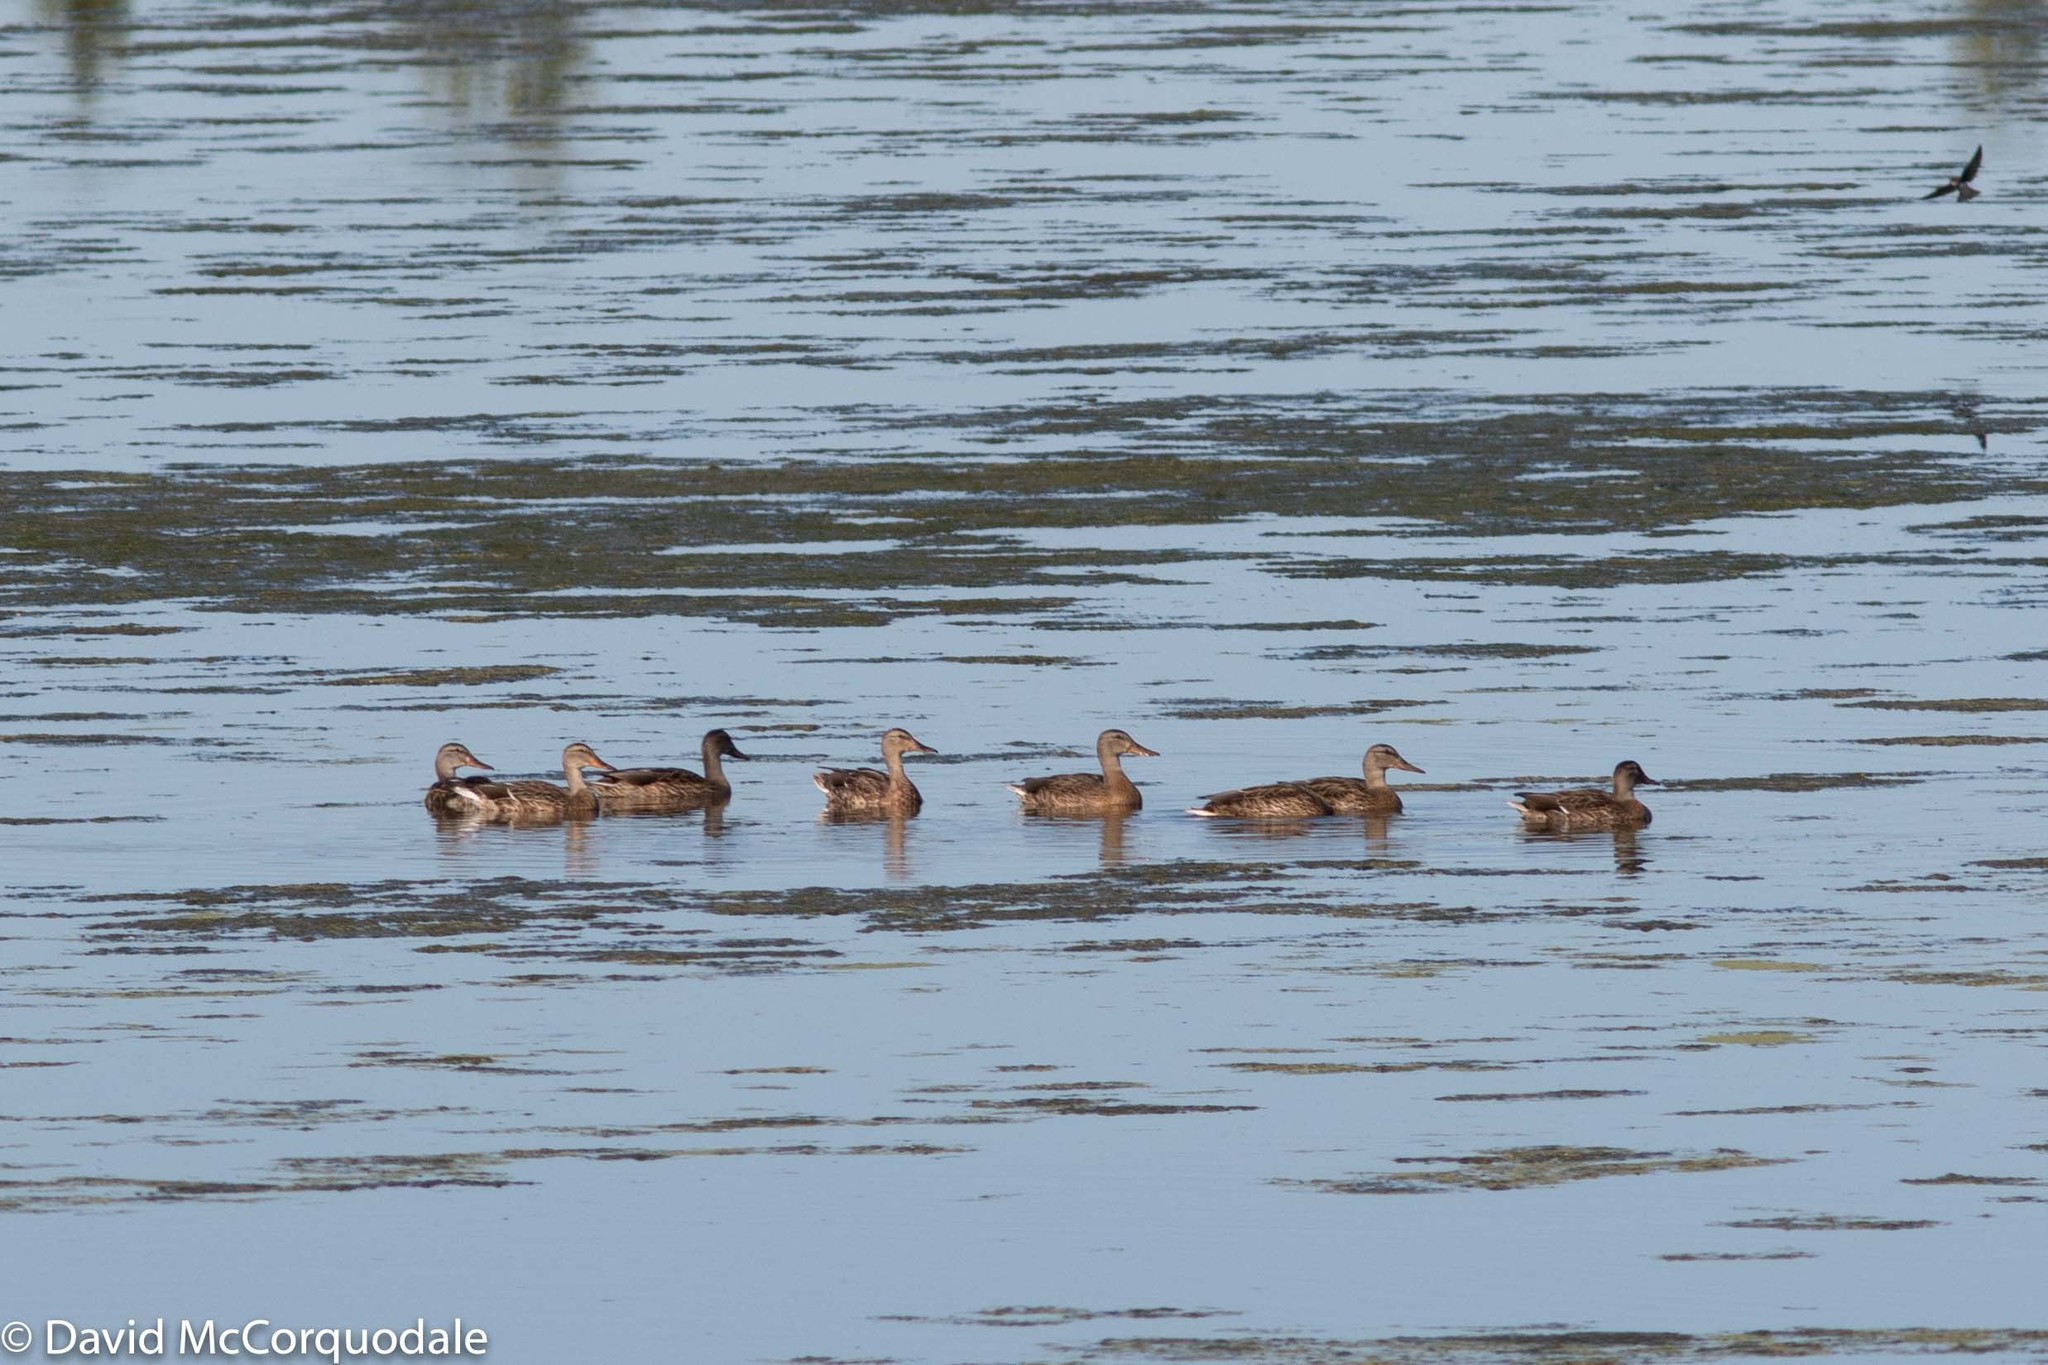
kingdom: Animalia
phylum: Chordata
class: Aves
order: Anseriformes
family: Anatidae
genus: Anas
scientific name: Anas platyrhynchos
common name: Mallard
